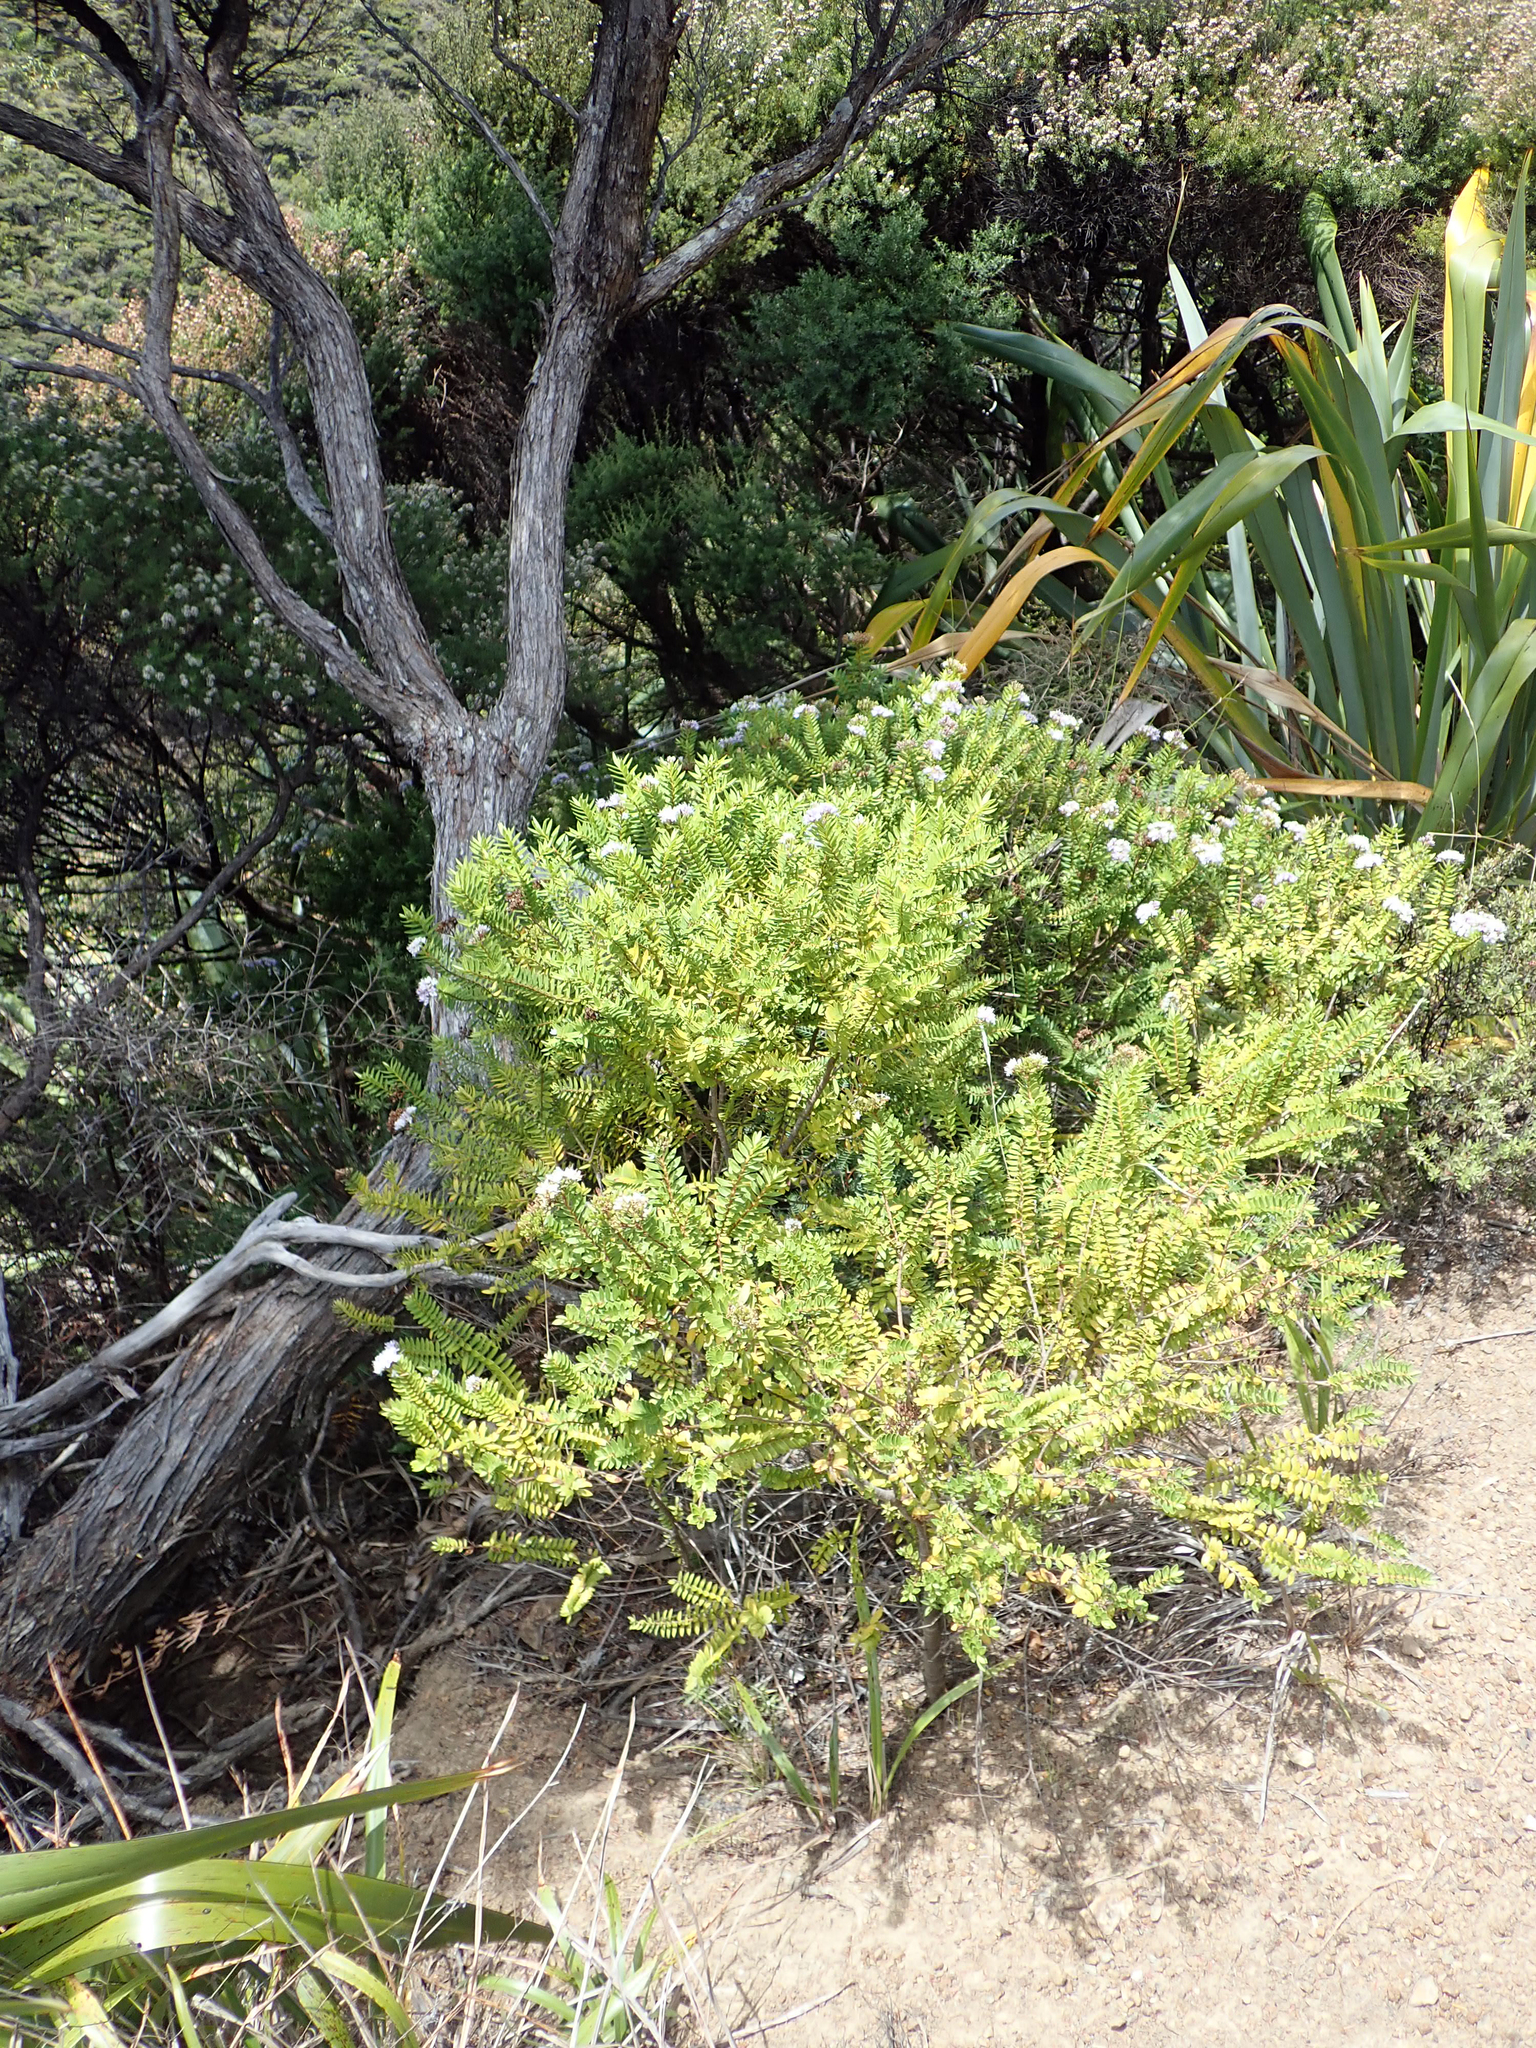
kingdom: Plantae
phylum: Tracheophyta
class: Magnoliopsida
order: Lamiales
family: Plantaginaceae
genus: Veronica
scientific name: Veronica diosmifolia
